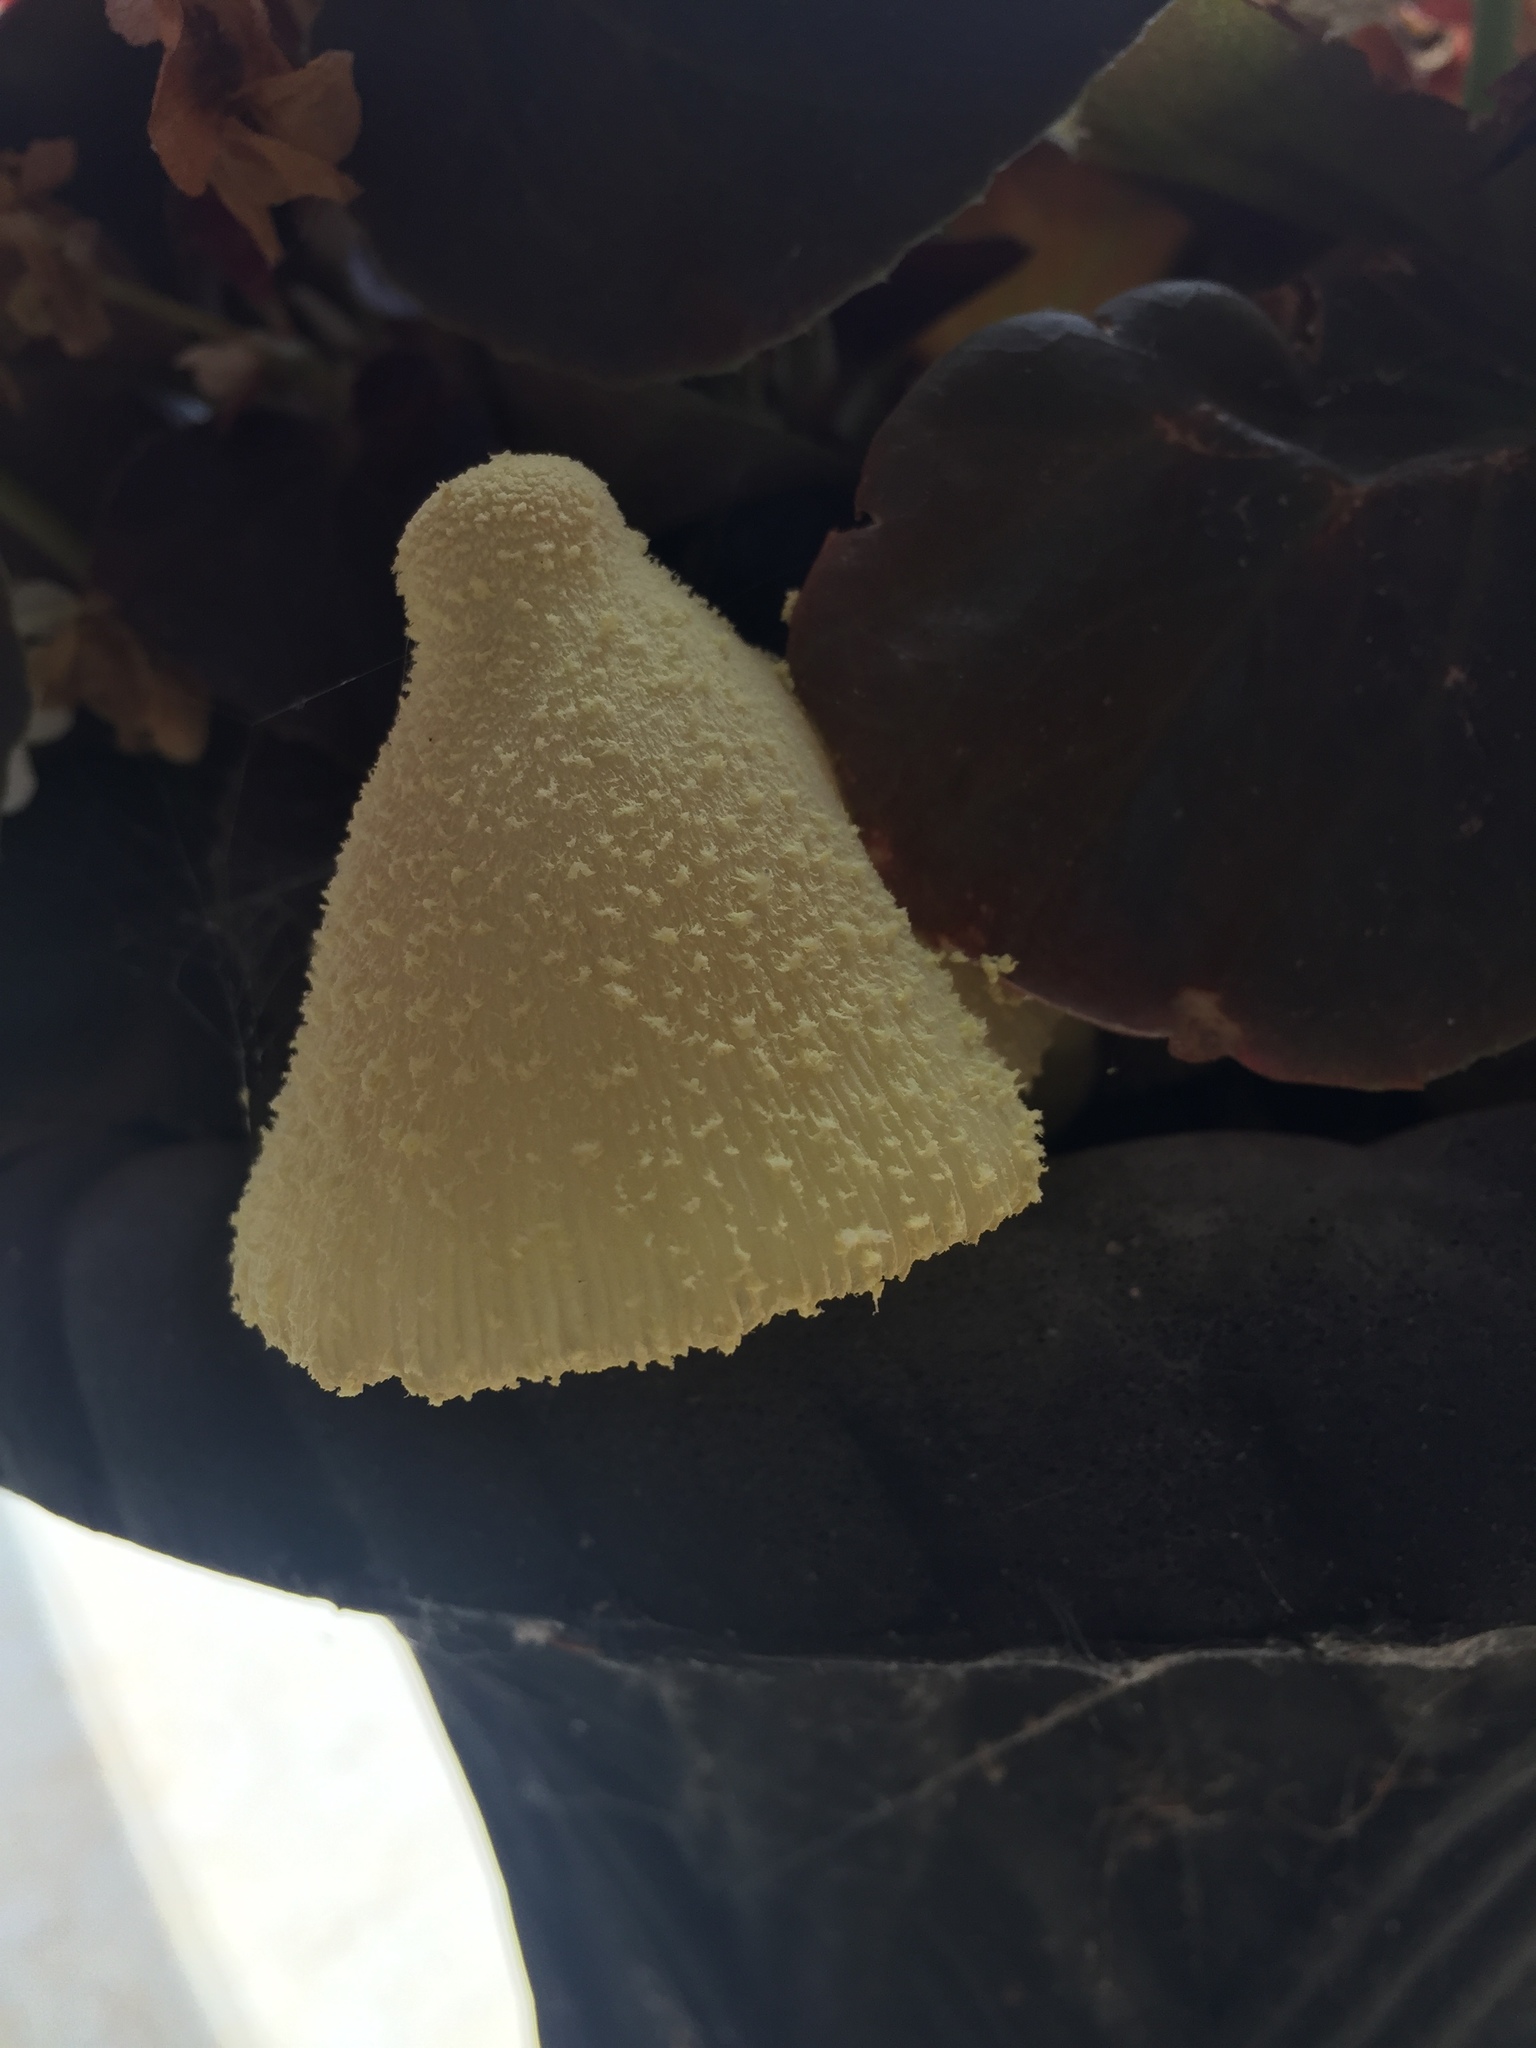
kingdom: Fungi
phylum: Basidiomycota
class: Agaricomycetes
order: Agaricales
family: Agaricaceae
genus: Leucocoprinus
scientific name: Leucocoprinus birnbaumii
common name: Plantpot dapperling
